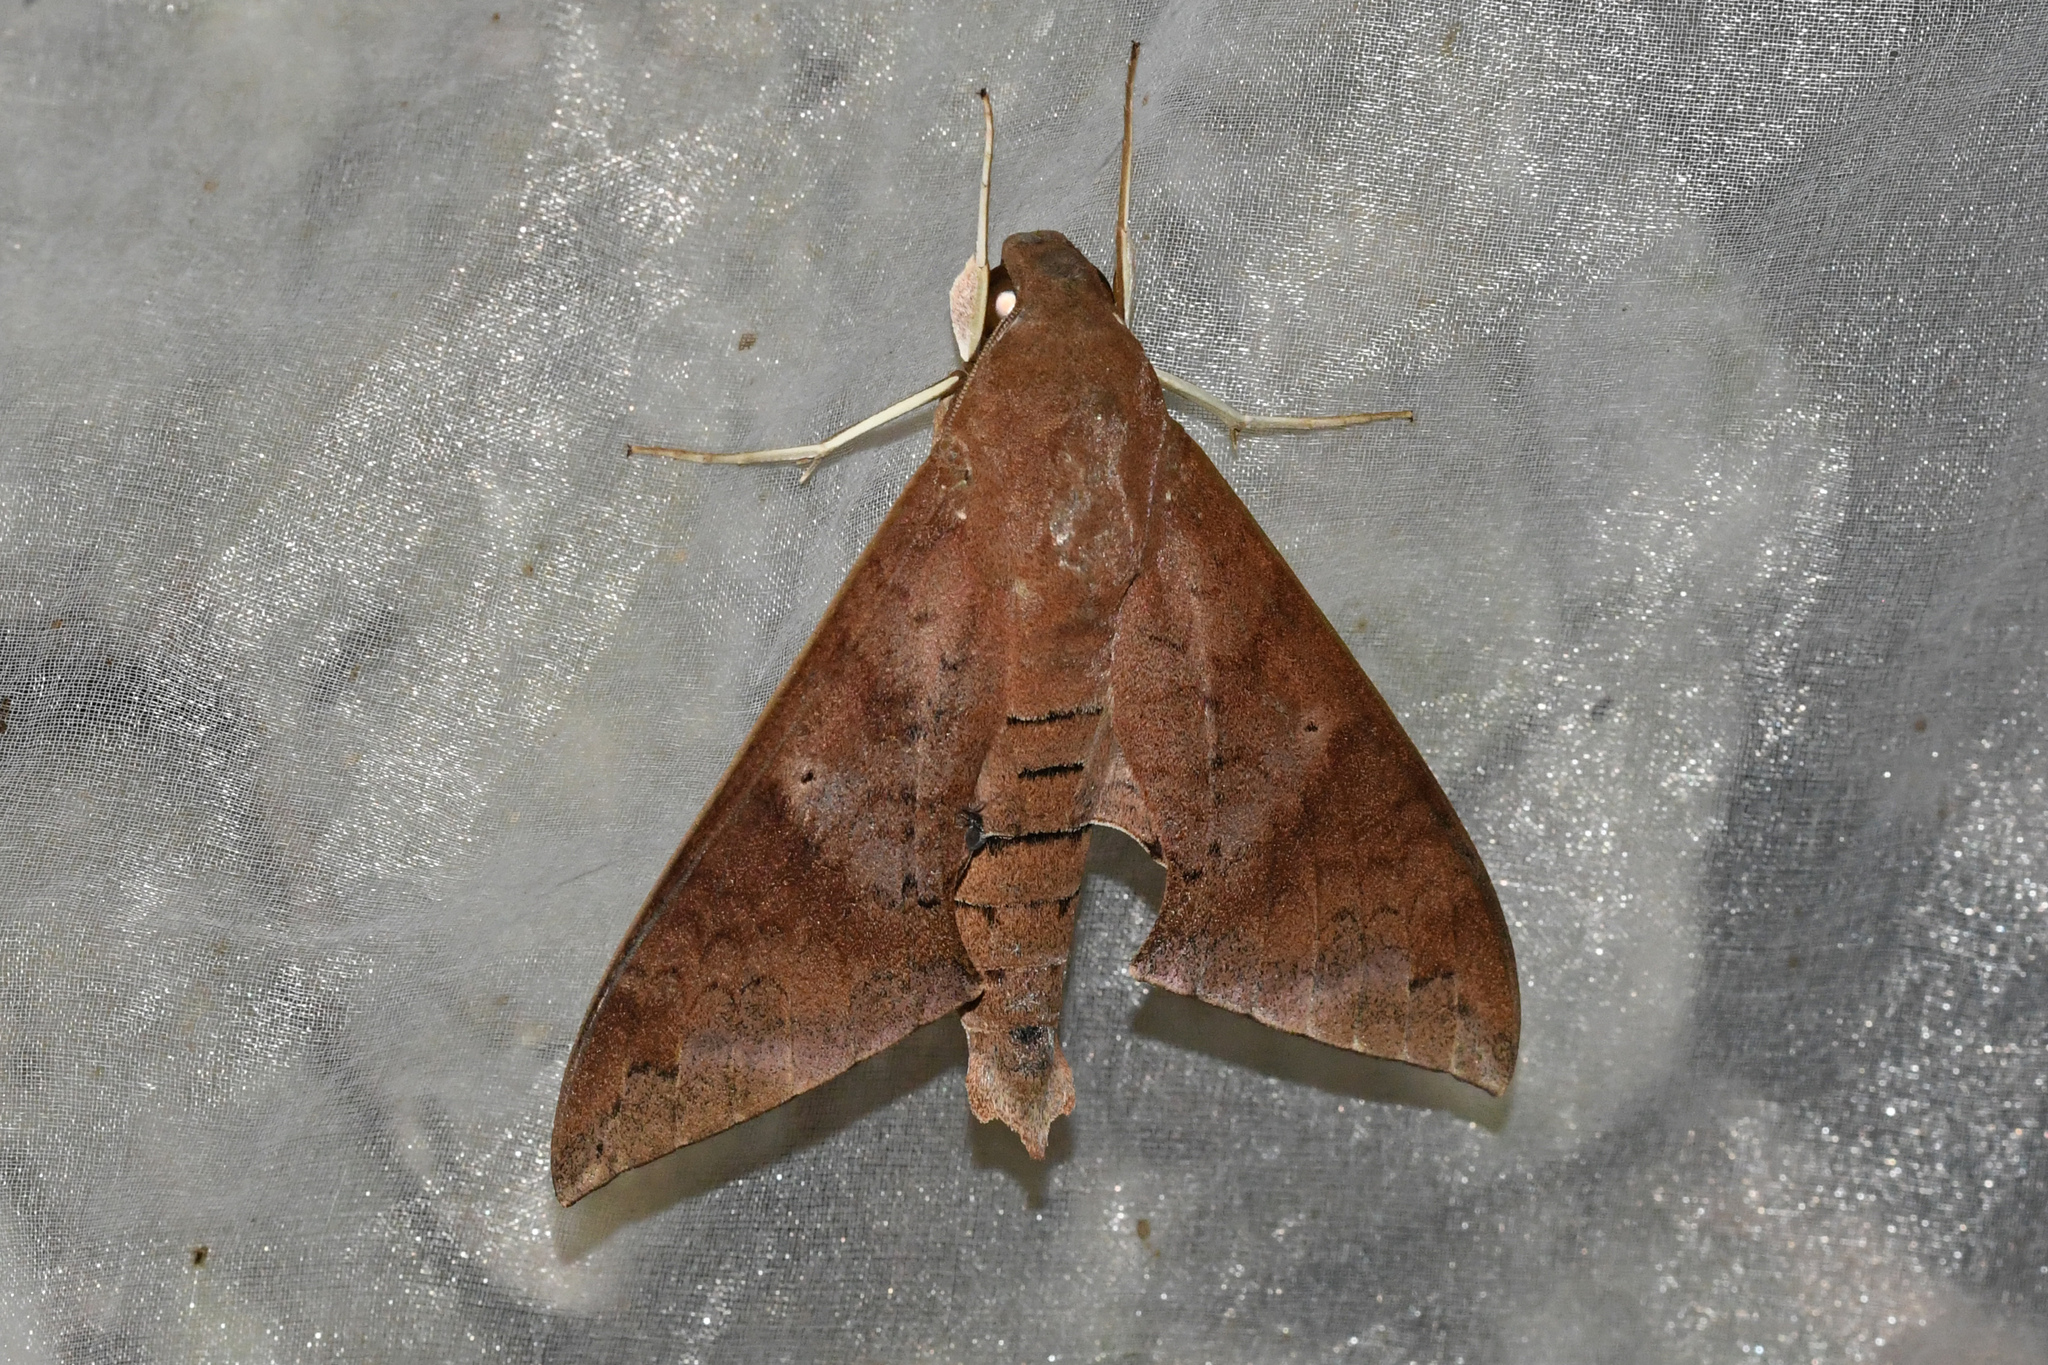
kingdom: Animalia
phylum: Arthropoda
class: Insecta
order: Lepidoptera
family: Sphingidae
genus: Pachylioides
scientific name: Pachylioides resumens
